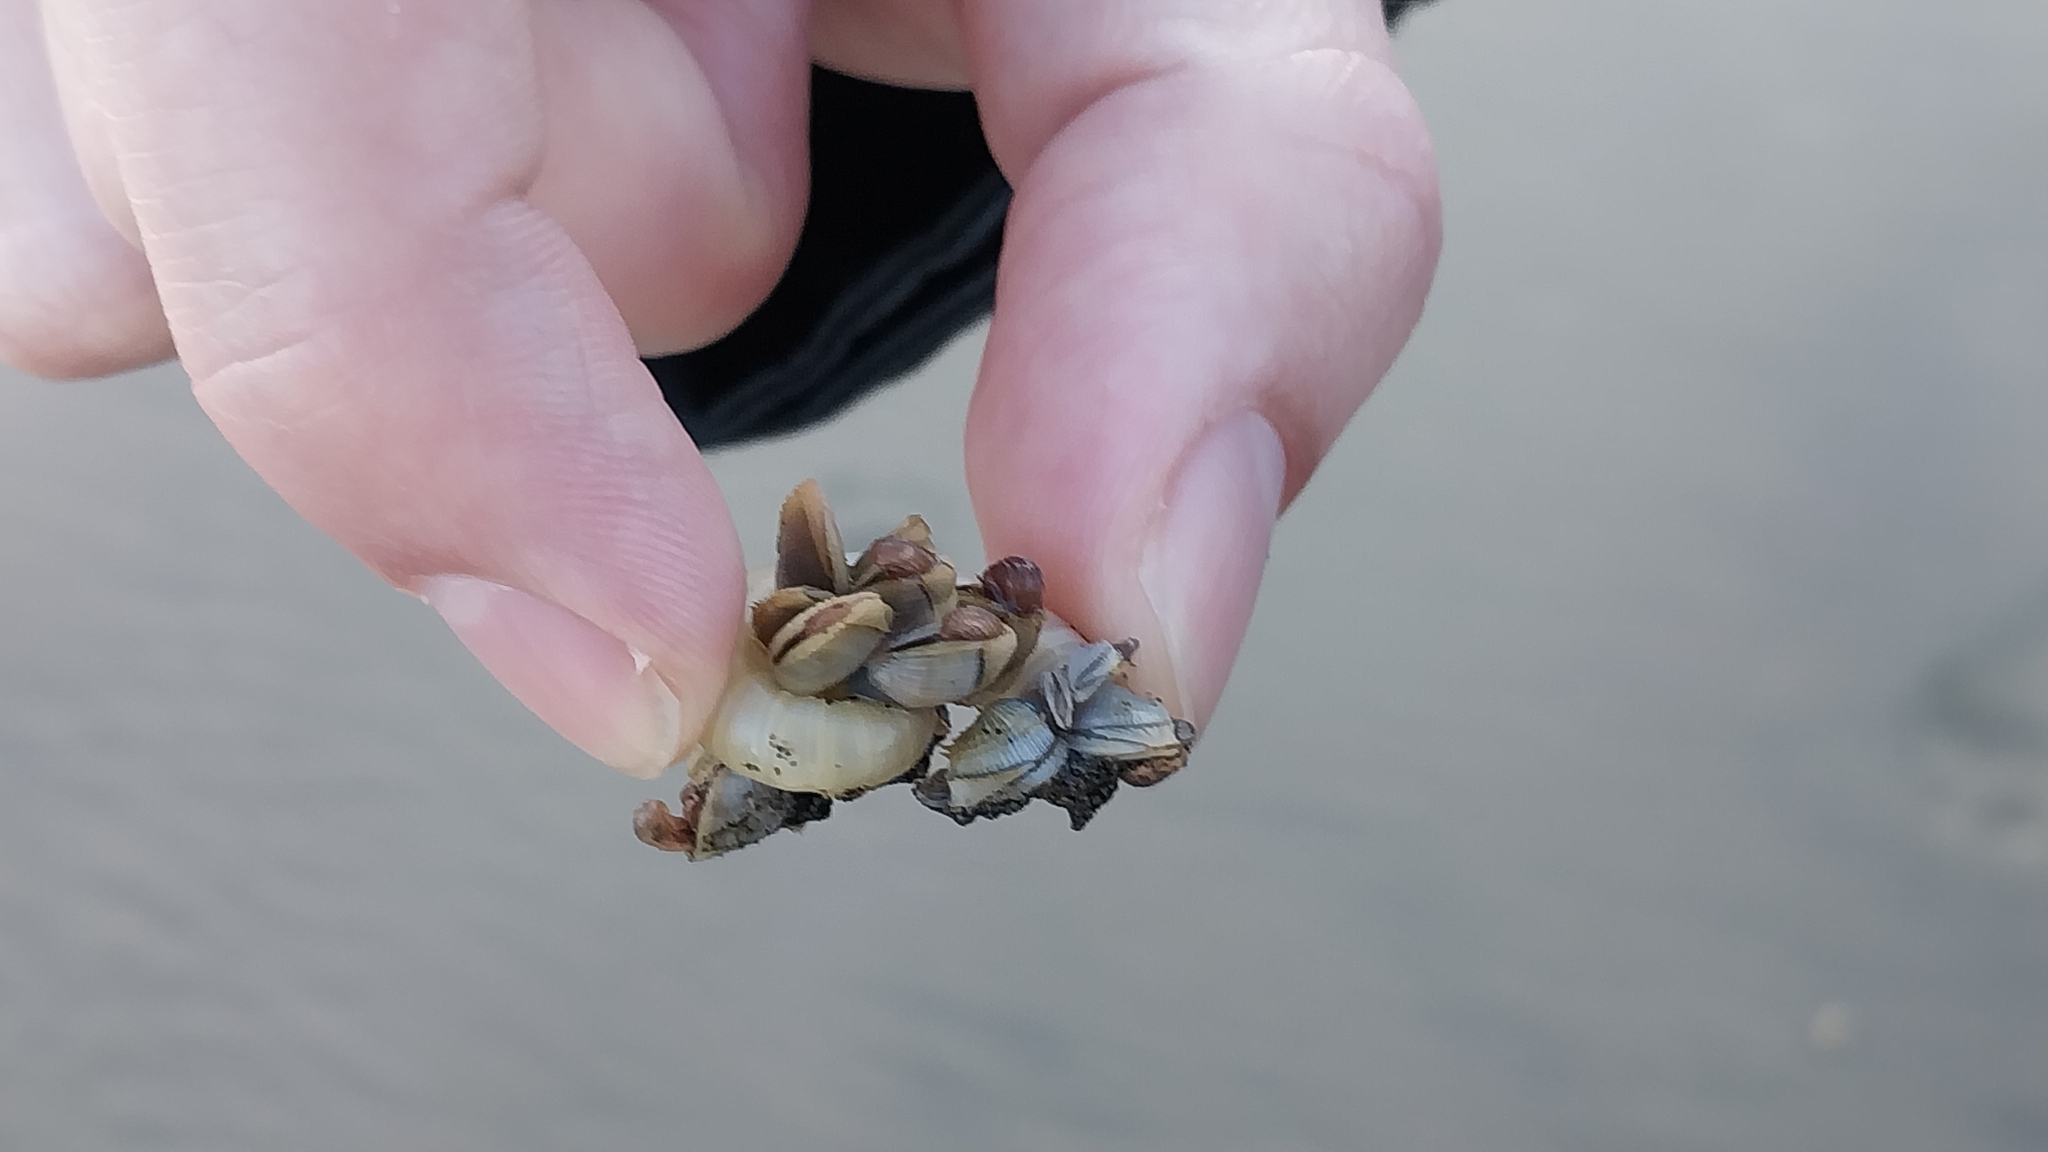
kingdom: Animalia
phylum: Arthropoda
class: Maxillopoda
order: Pedunculata
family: Lepadidae
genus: Lepas
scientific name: Lepas pectinata
